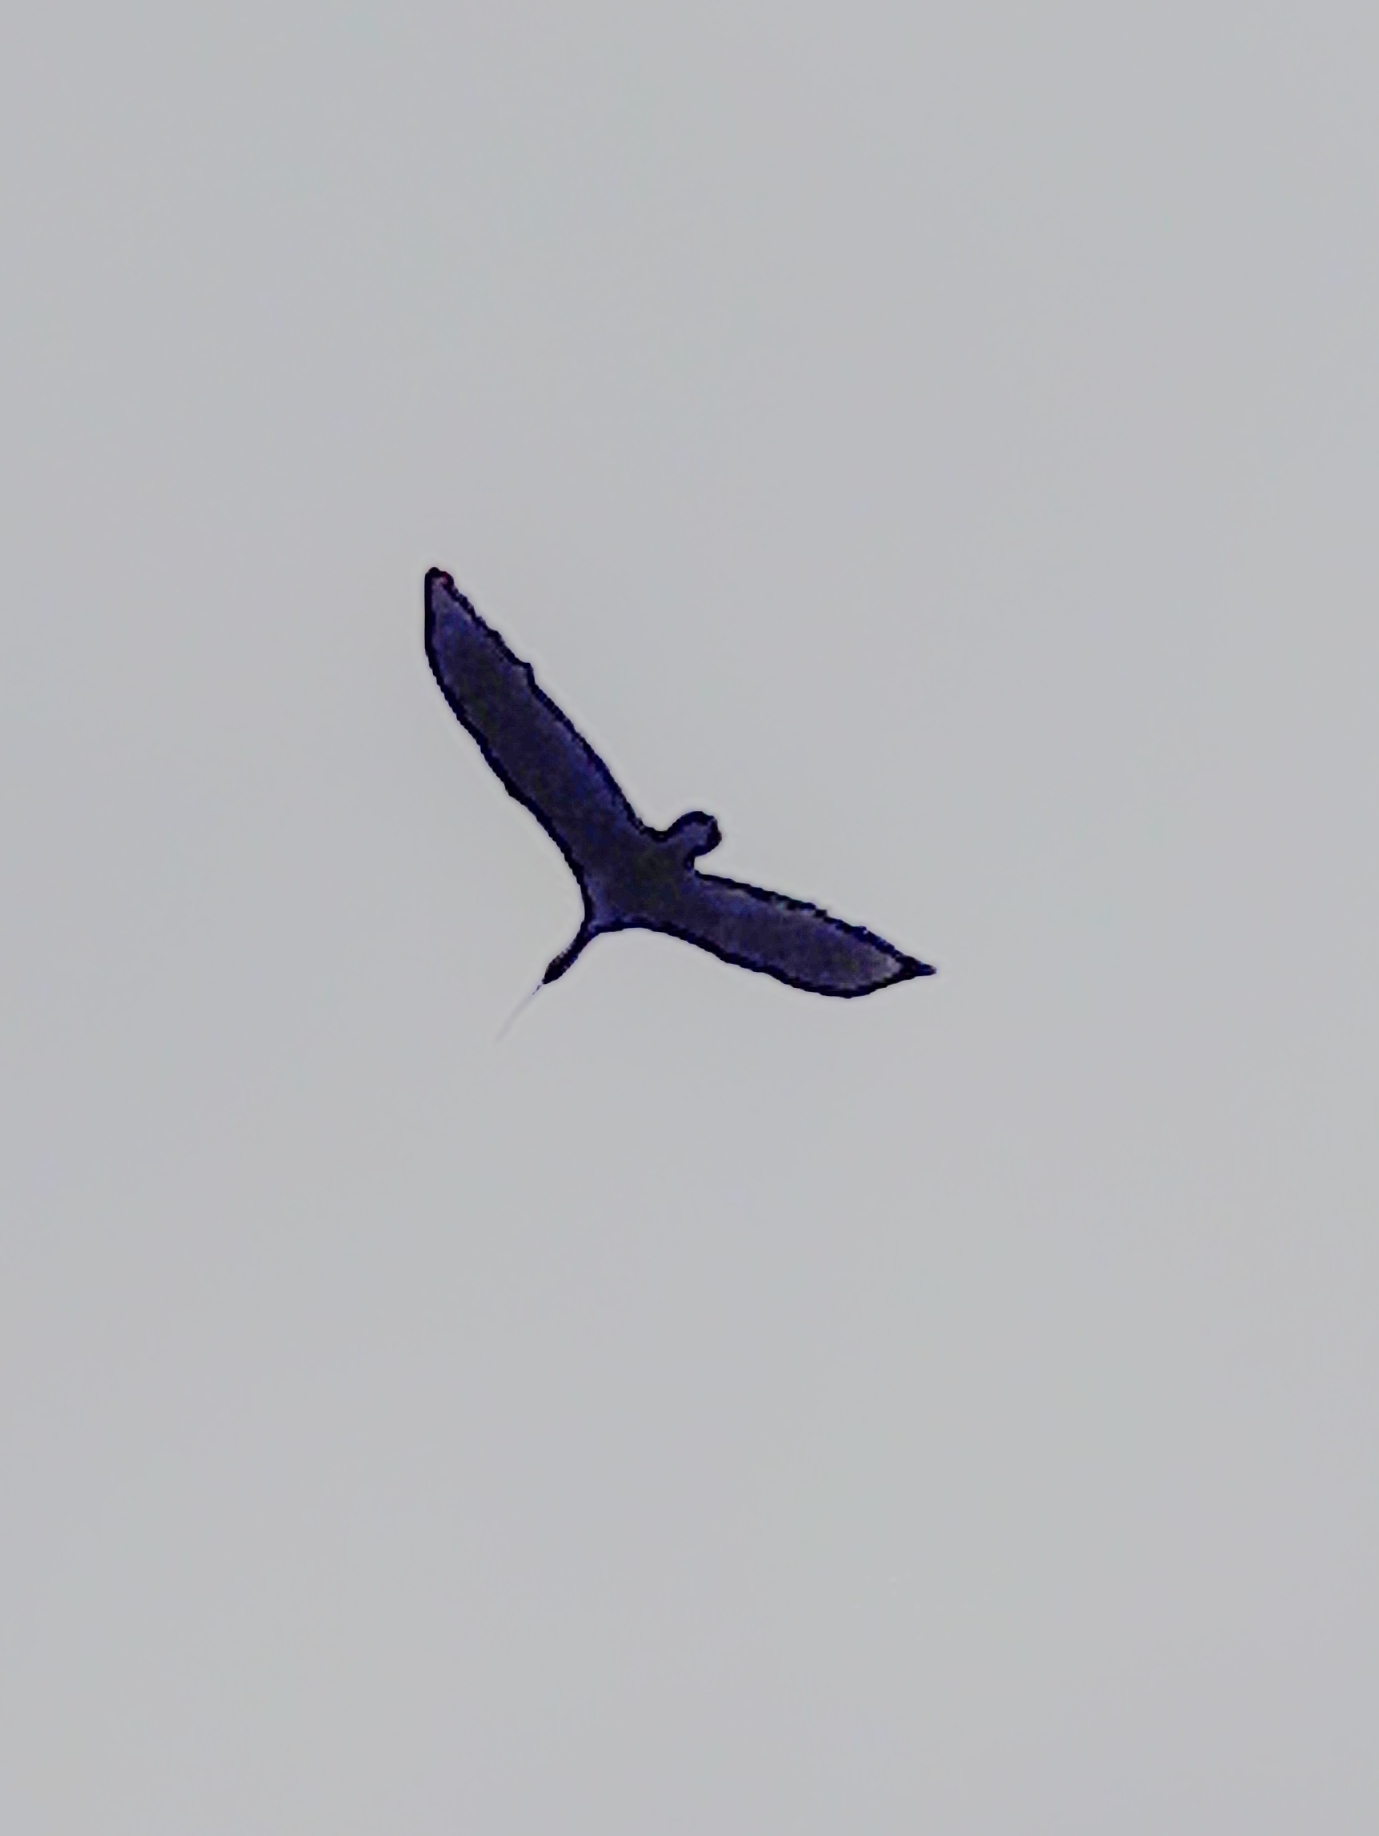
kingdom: Animalia
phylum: Chordata
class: Aves
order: Pelecaniformes
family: Threskiornithidae
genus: Theristicus
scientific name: Theristicus caudatus
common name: Buff-necked ibis
